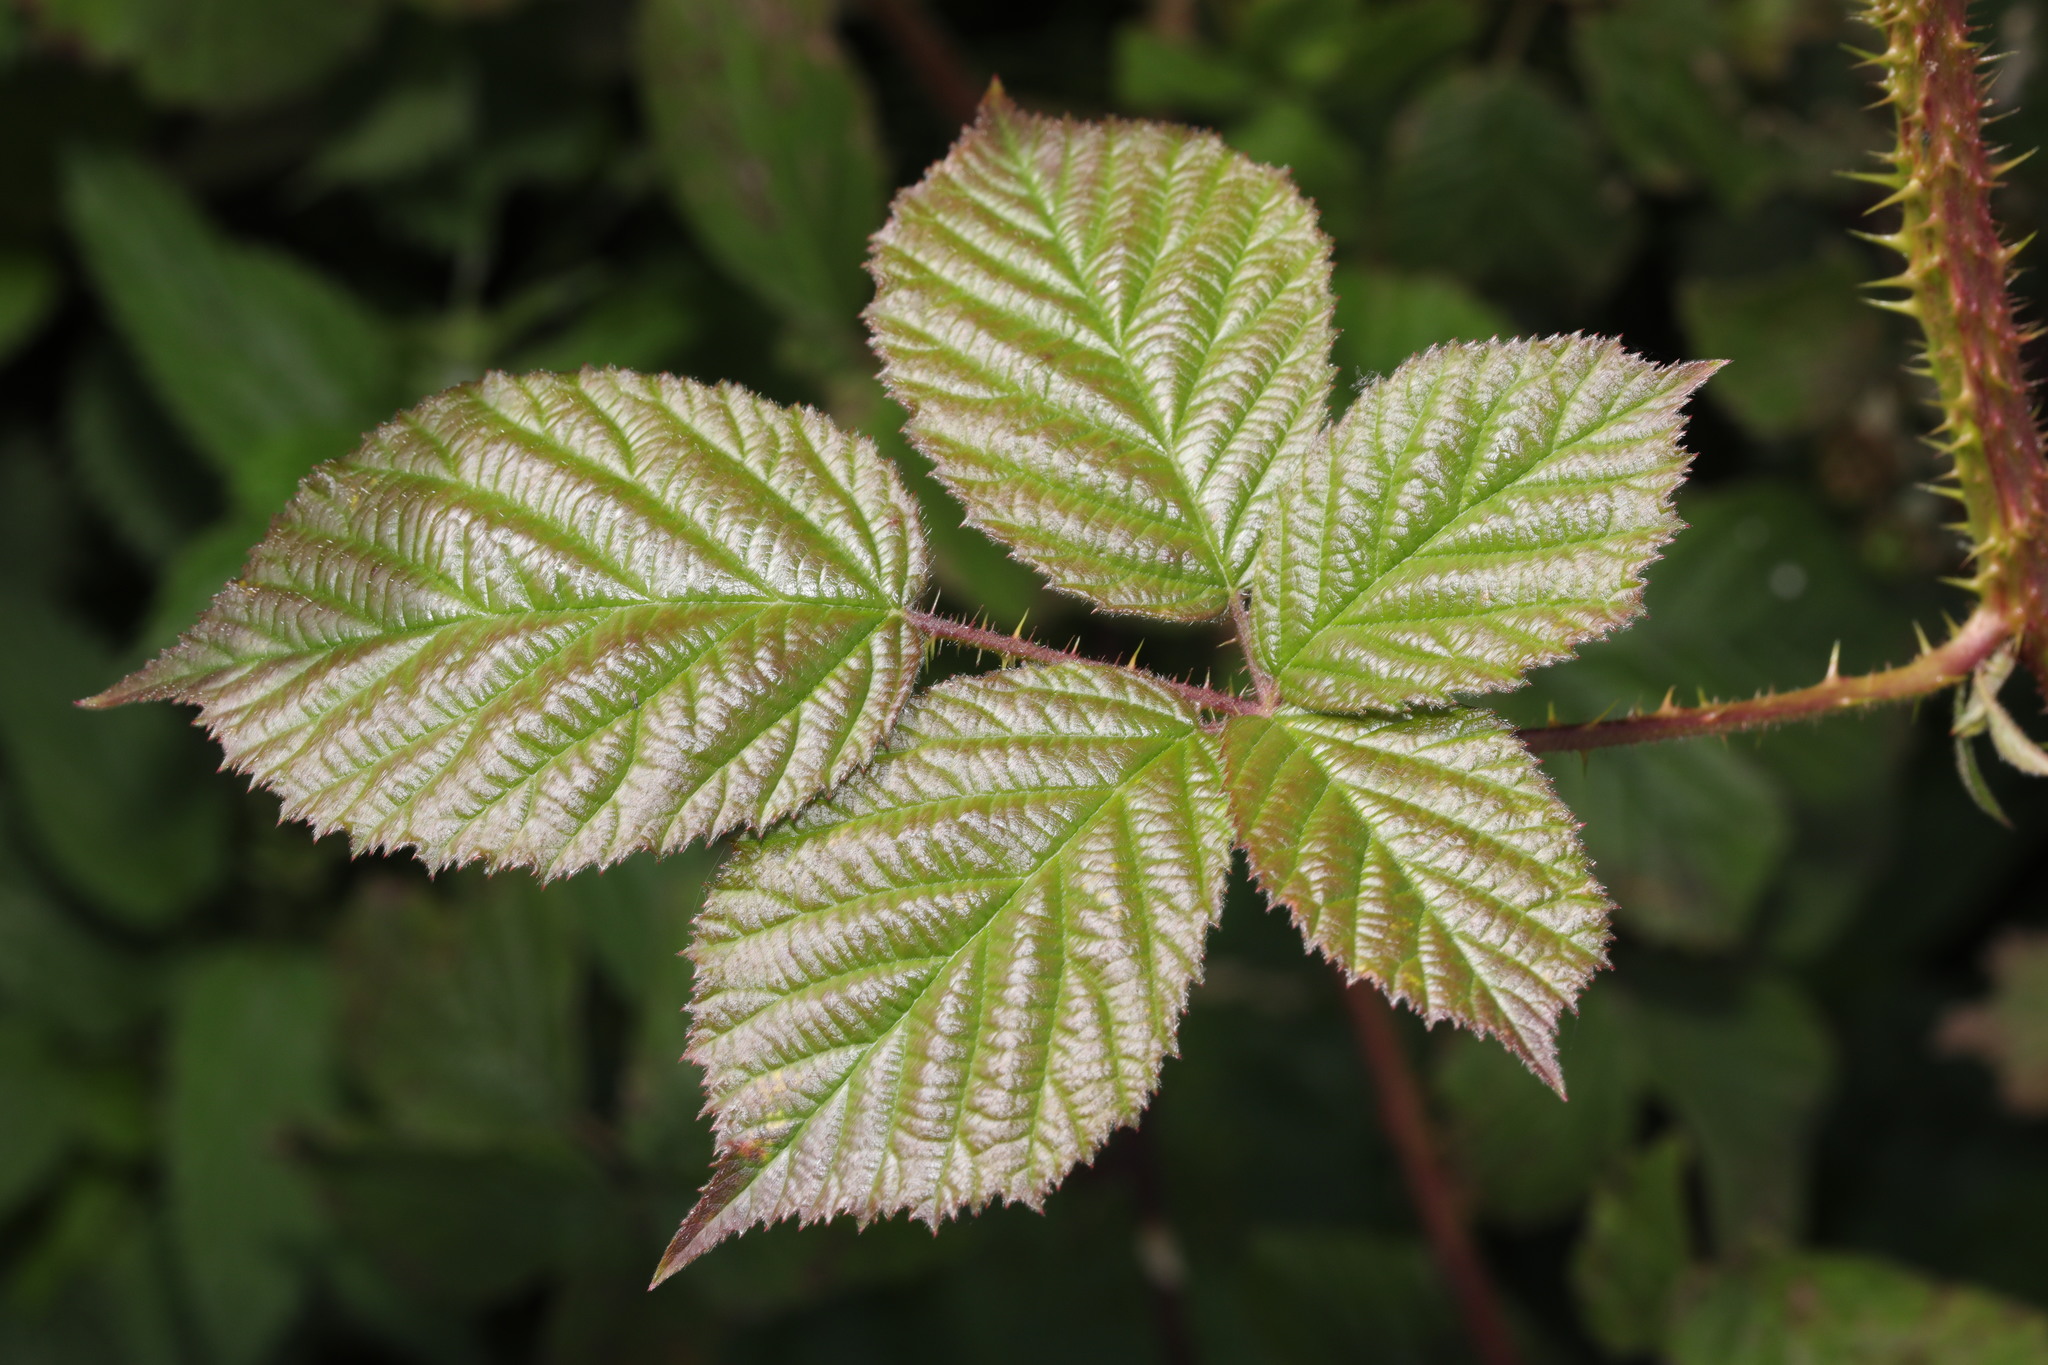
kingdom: Plantae
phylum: Tracheophyta
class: Magnoliopsida
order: Rosales
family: Rosaceae
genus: Rubus
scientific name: Rubus intensior
